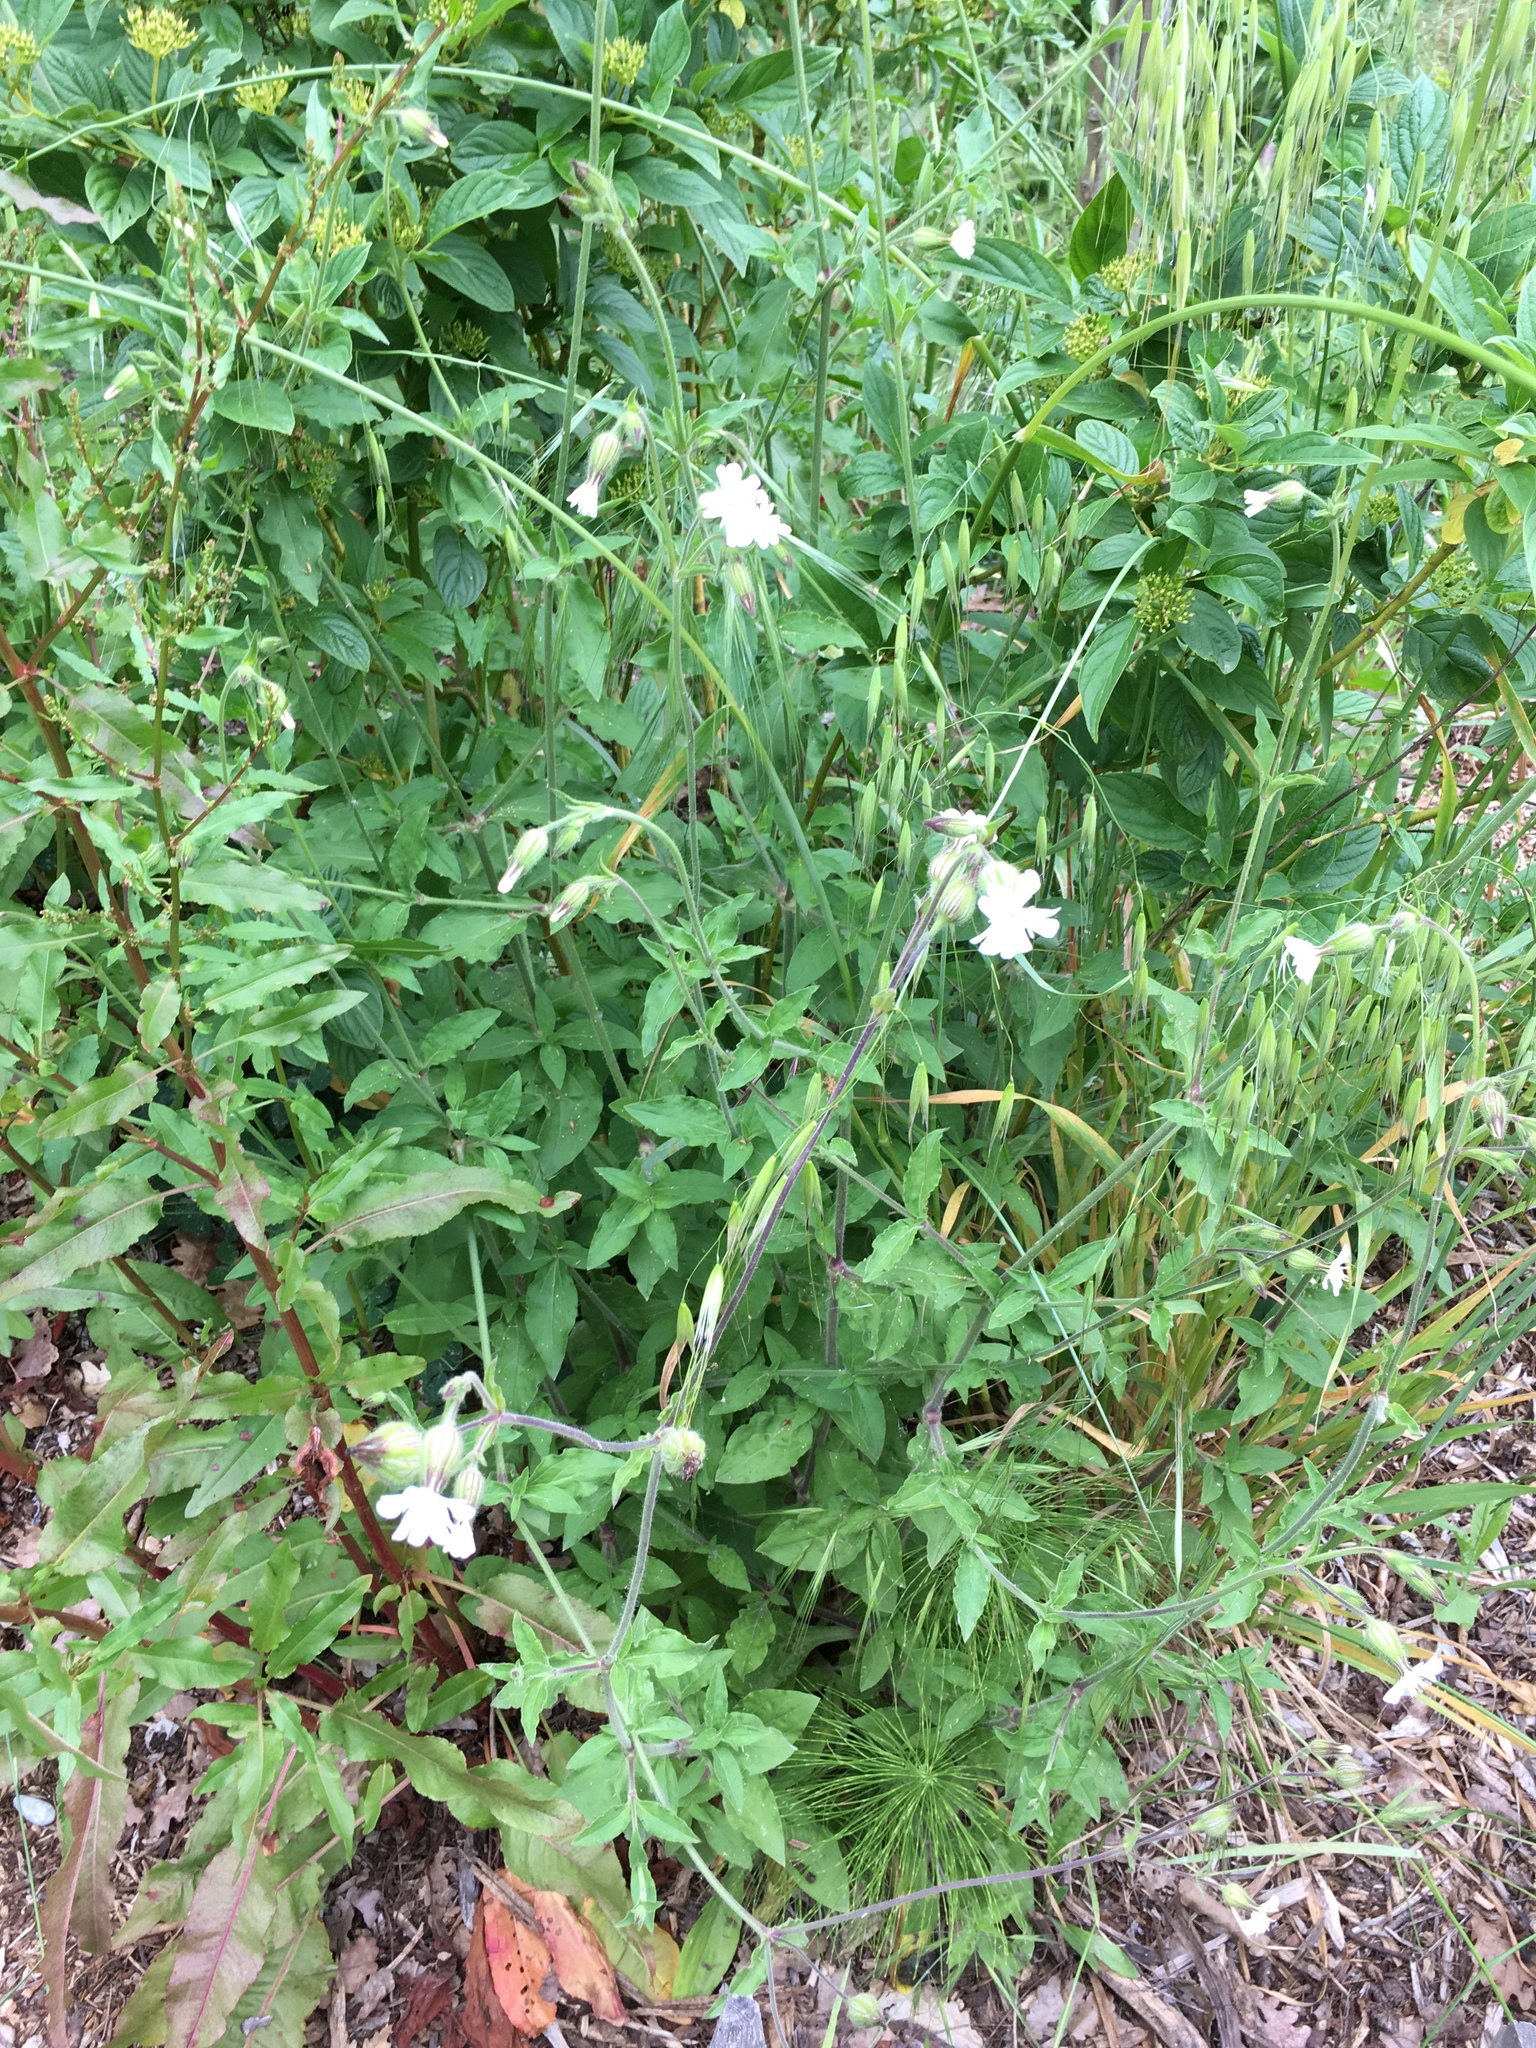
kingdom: Plantae
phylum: Tracheophyta
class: Magnoliopsida
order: Caryophyllales
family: Caryophyllaceae
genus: Silene
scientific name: Silene latifolia
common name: White campion
